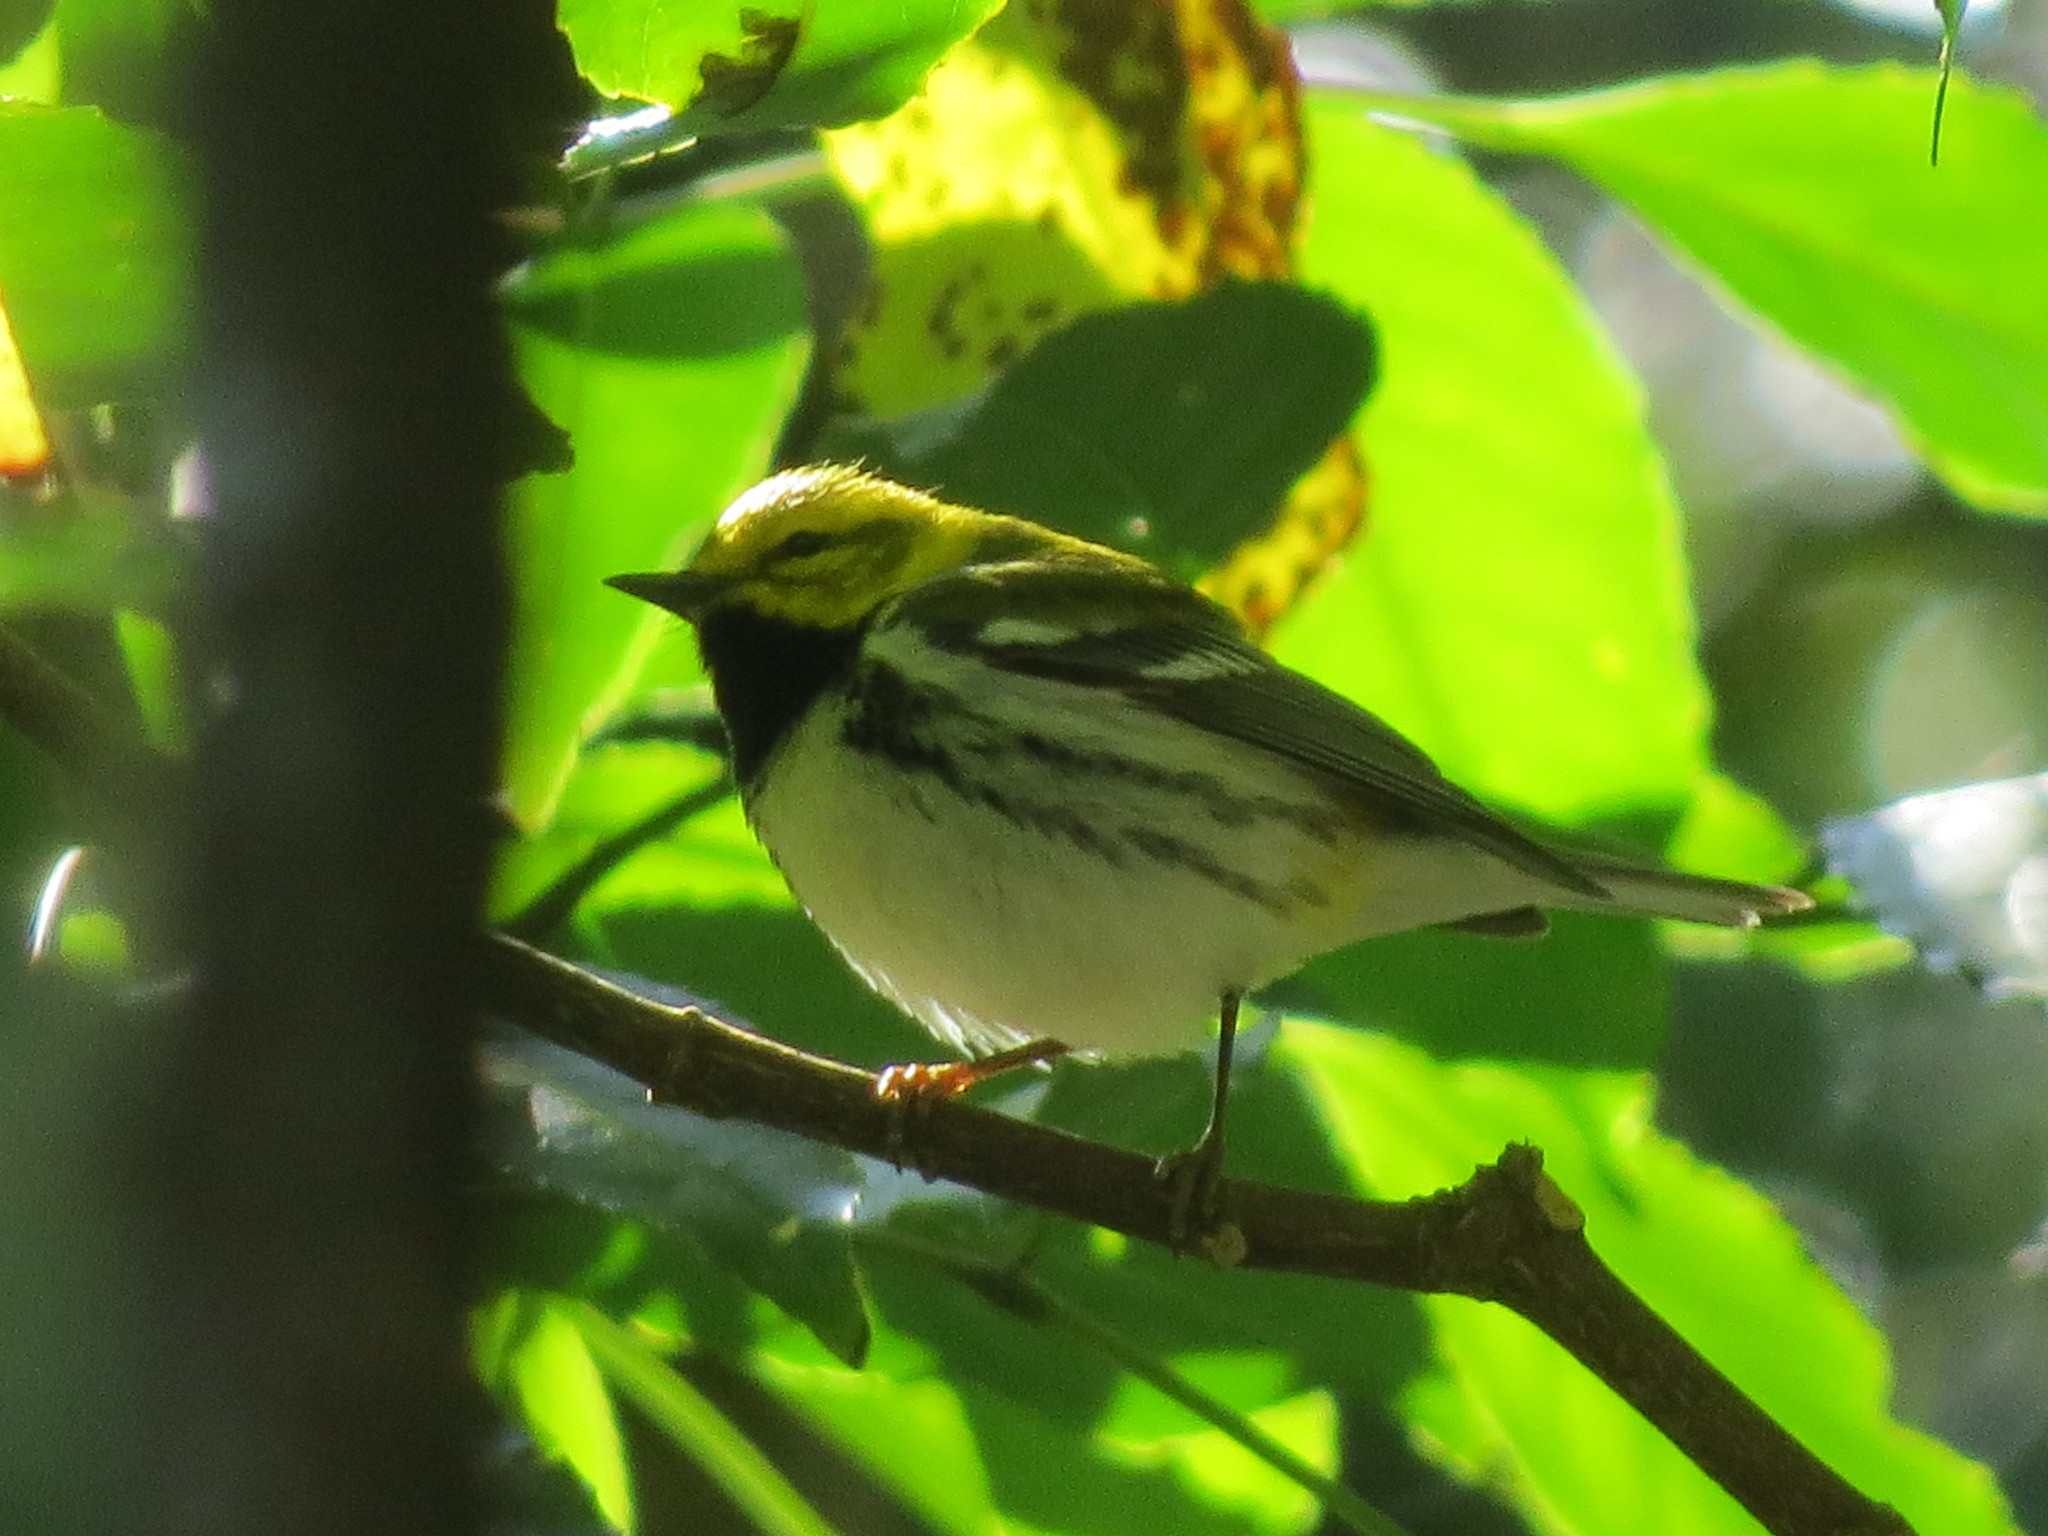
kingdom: Animalia
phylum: Chordata
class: Aves
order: Passeriformes
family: Parulidae
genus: Setophaga
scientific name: Setophaga virens
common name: Black-throated green warbler
